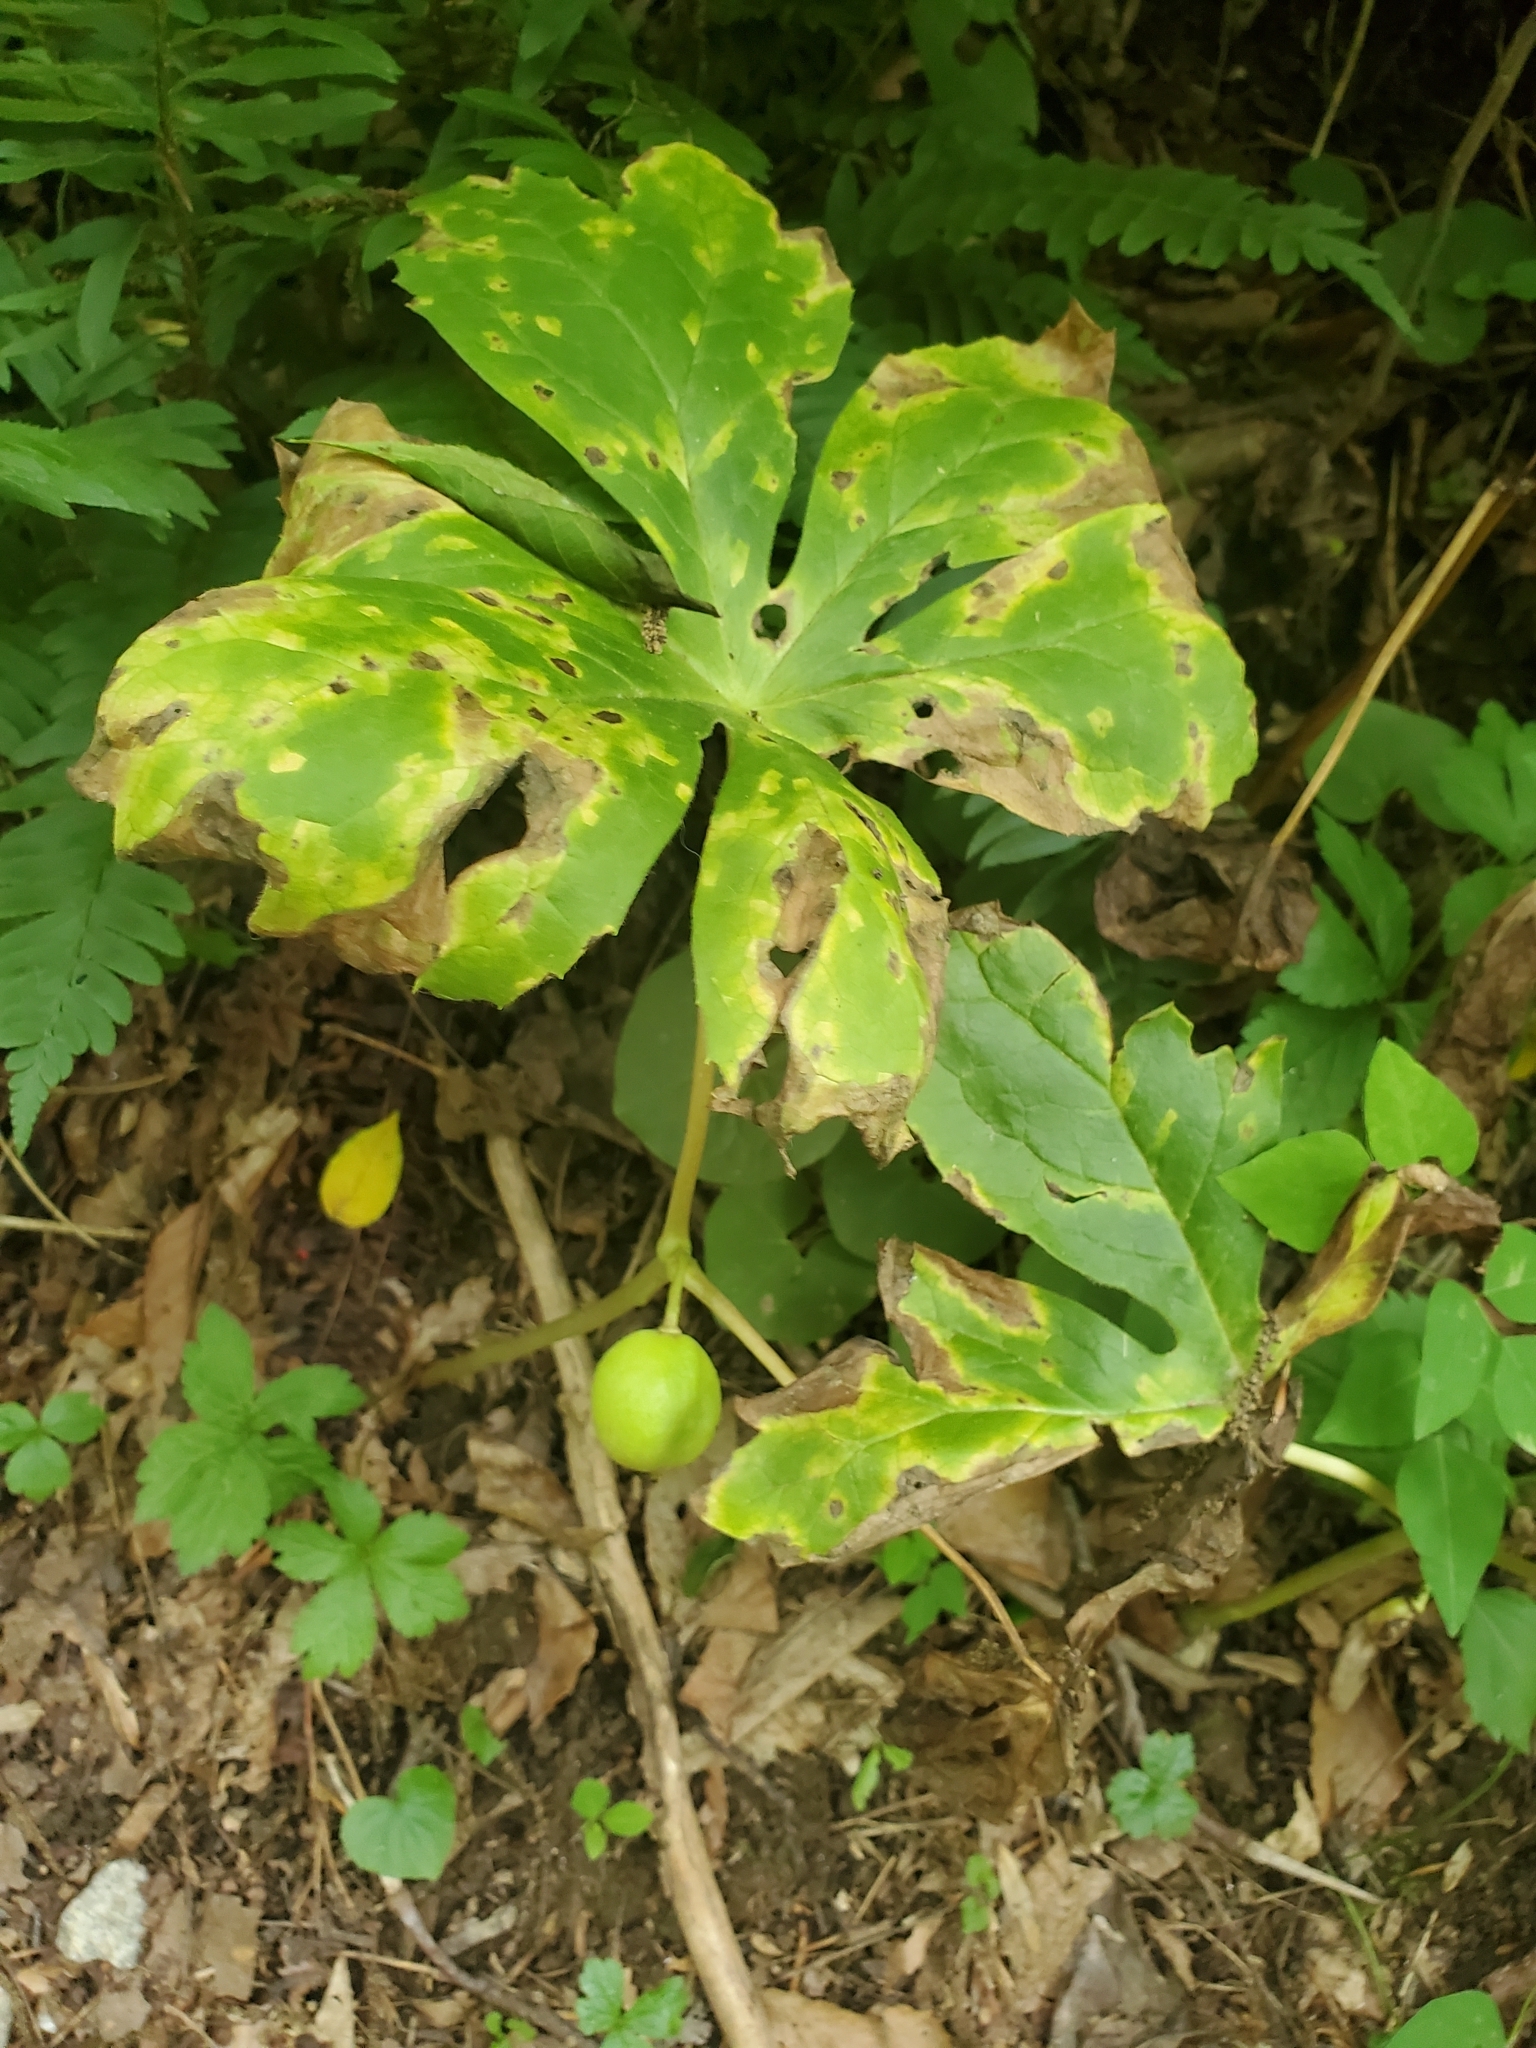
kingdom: Plantae
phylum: Tracheophyta
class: Magnoliopsida
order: Ranunculales
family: Berberidaceae
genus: Podophyllum
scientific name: Podophyllum peltatum
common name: Wild mandrake
